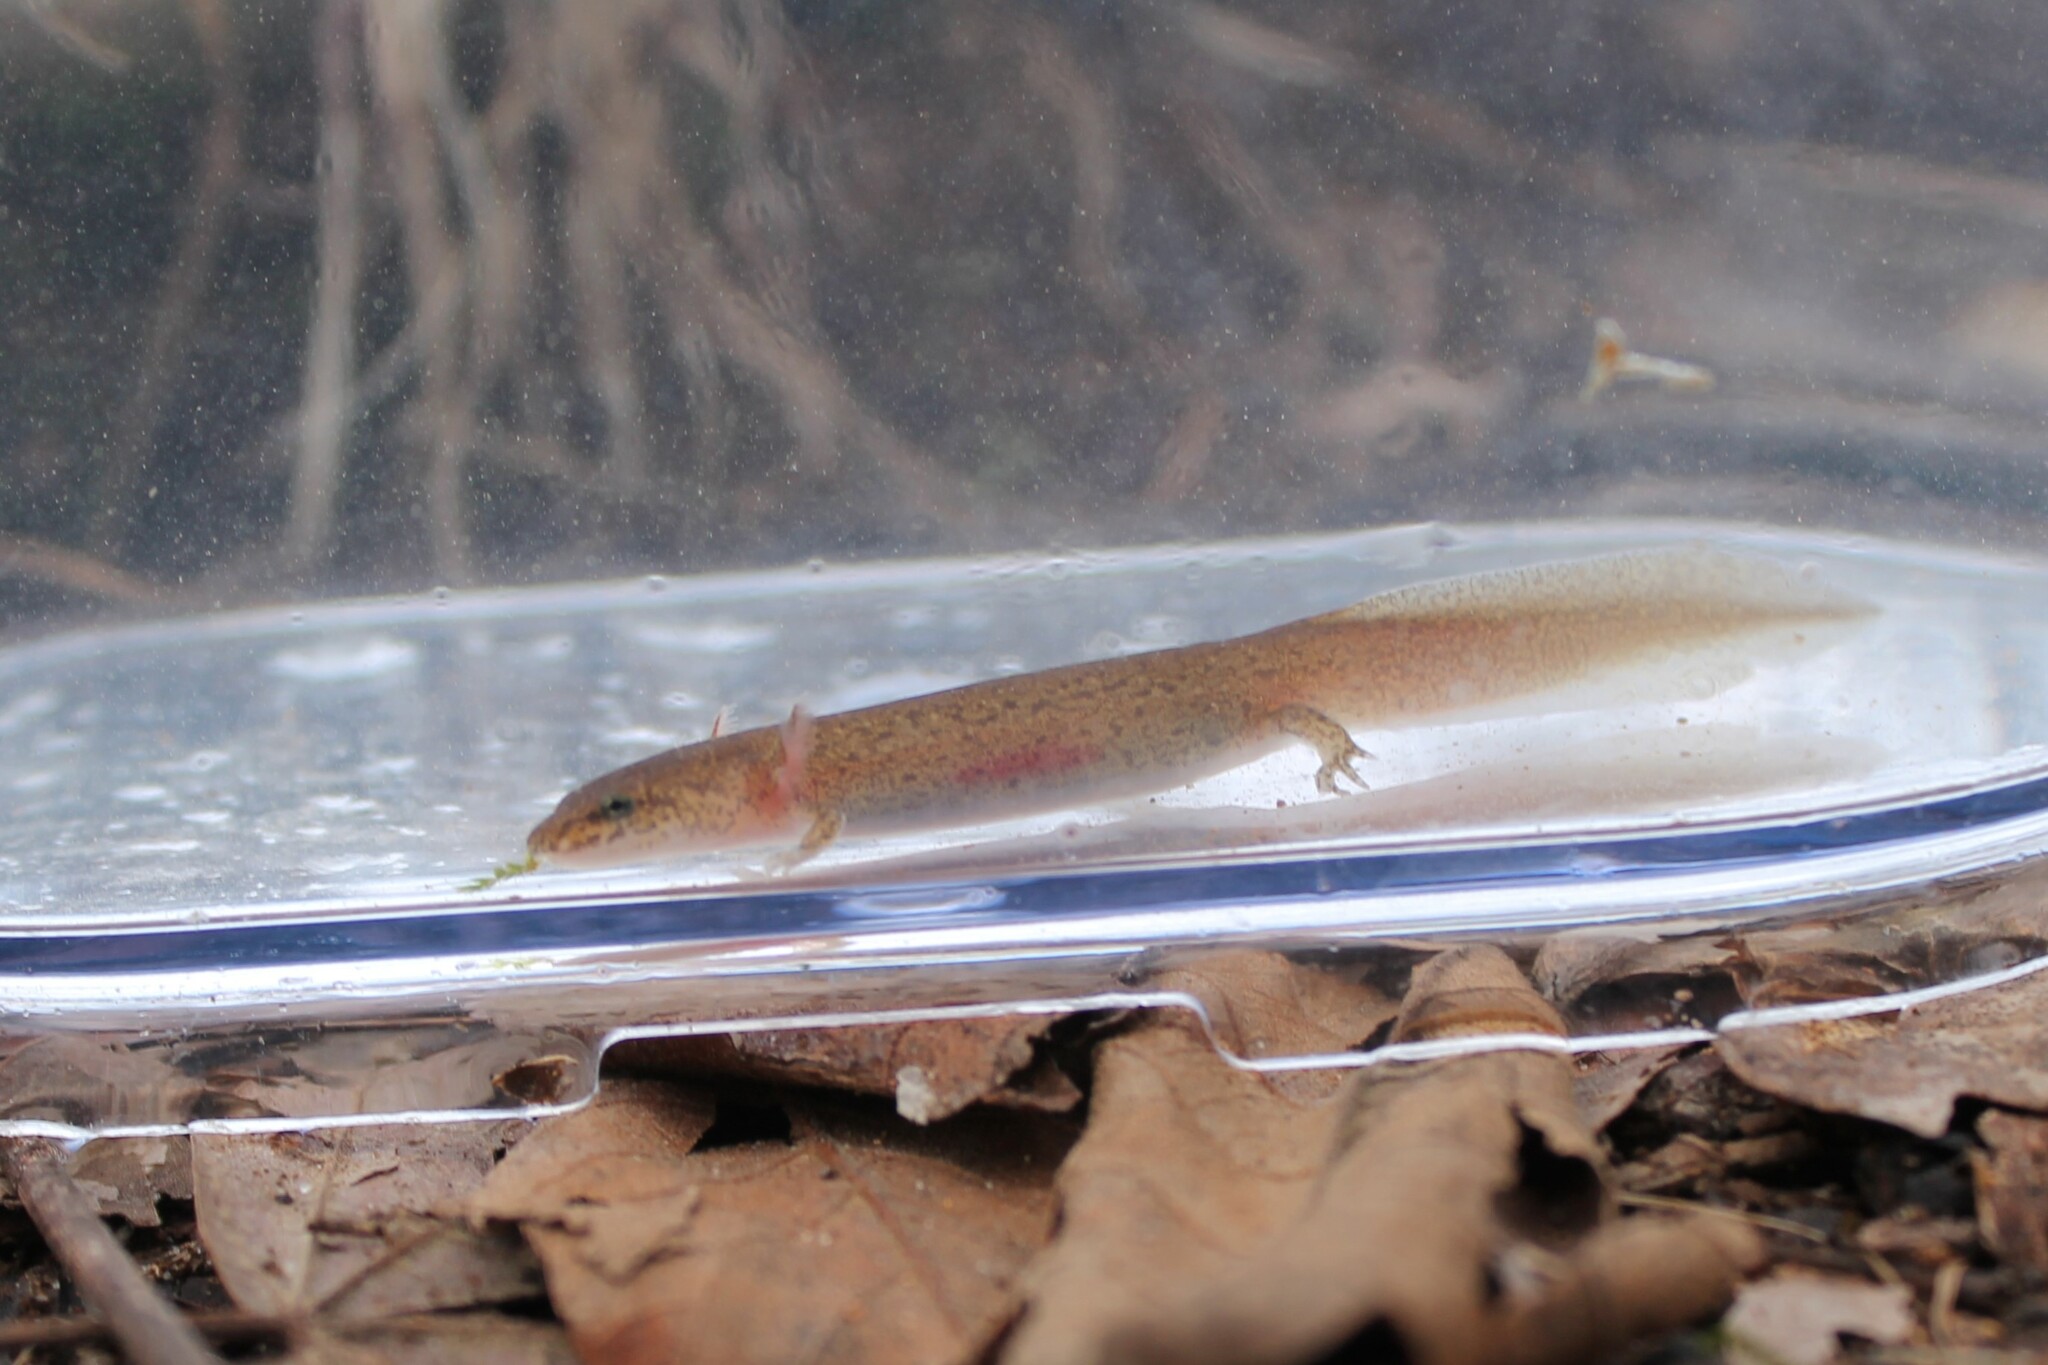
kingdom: Animalia
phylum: Chordata
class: Amphibia
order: Caudata
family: Plethodontidae
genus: Pseudotriton
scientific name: Pseudotriton ruber
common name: Red salamander
